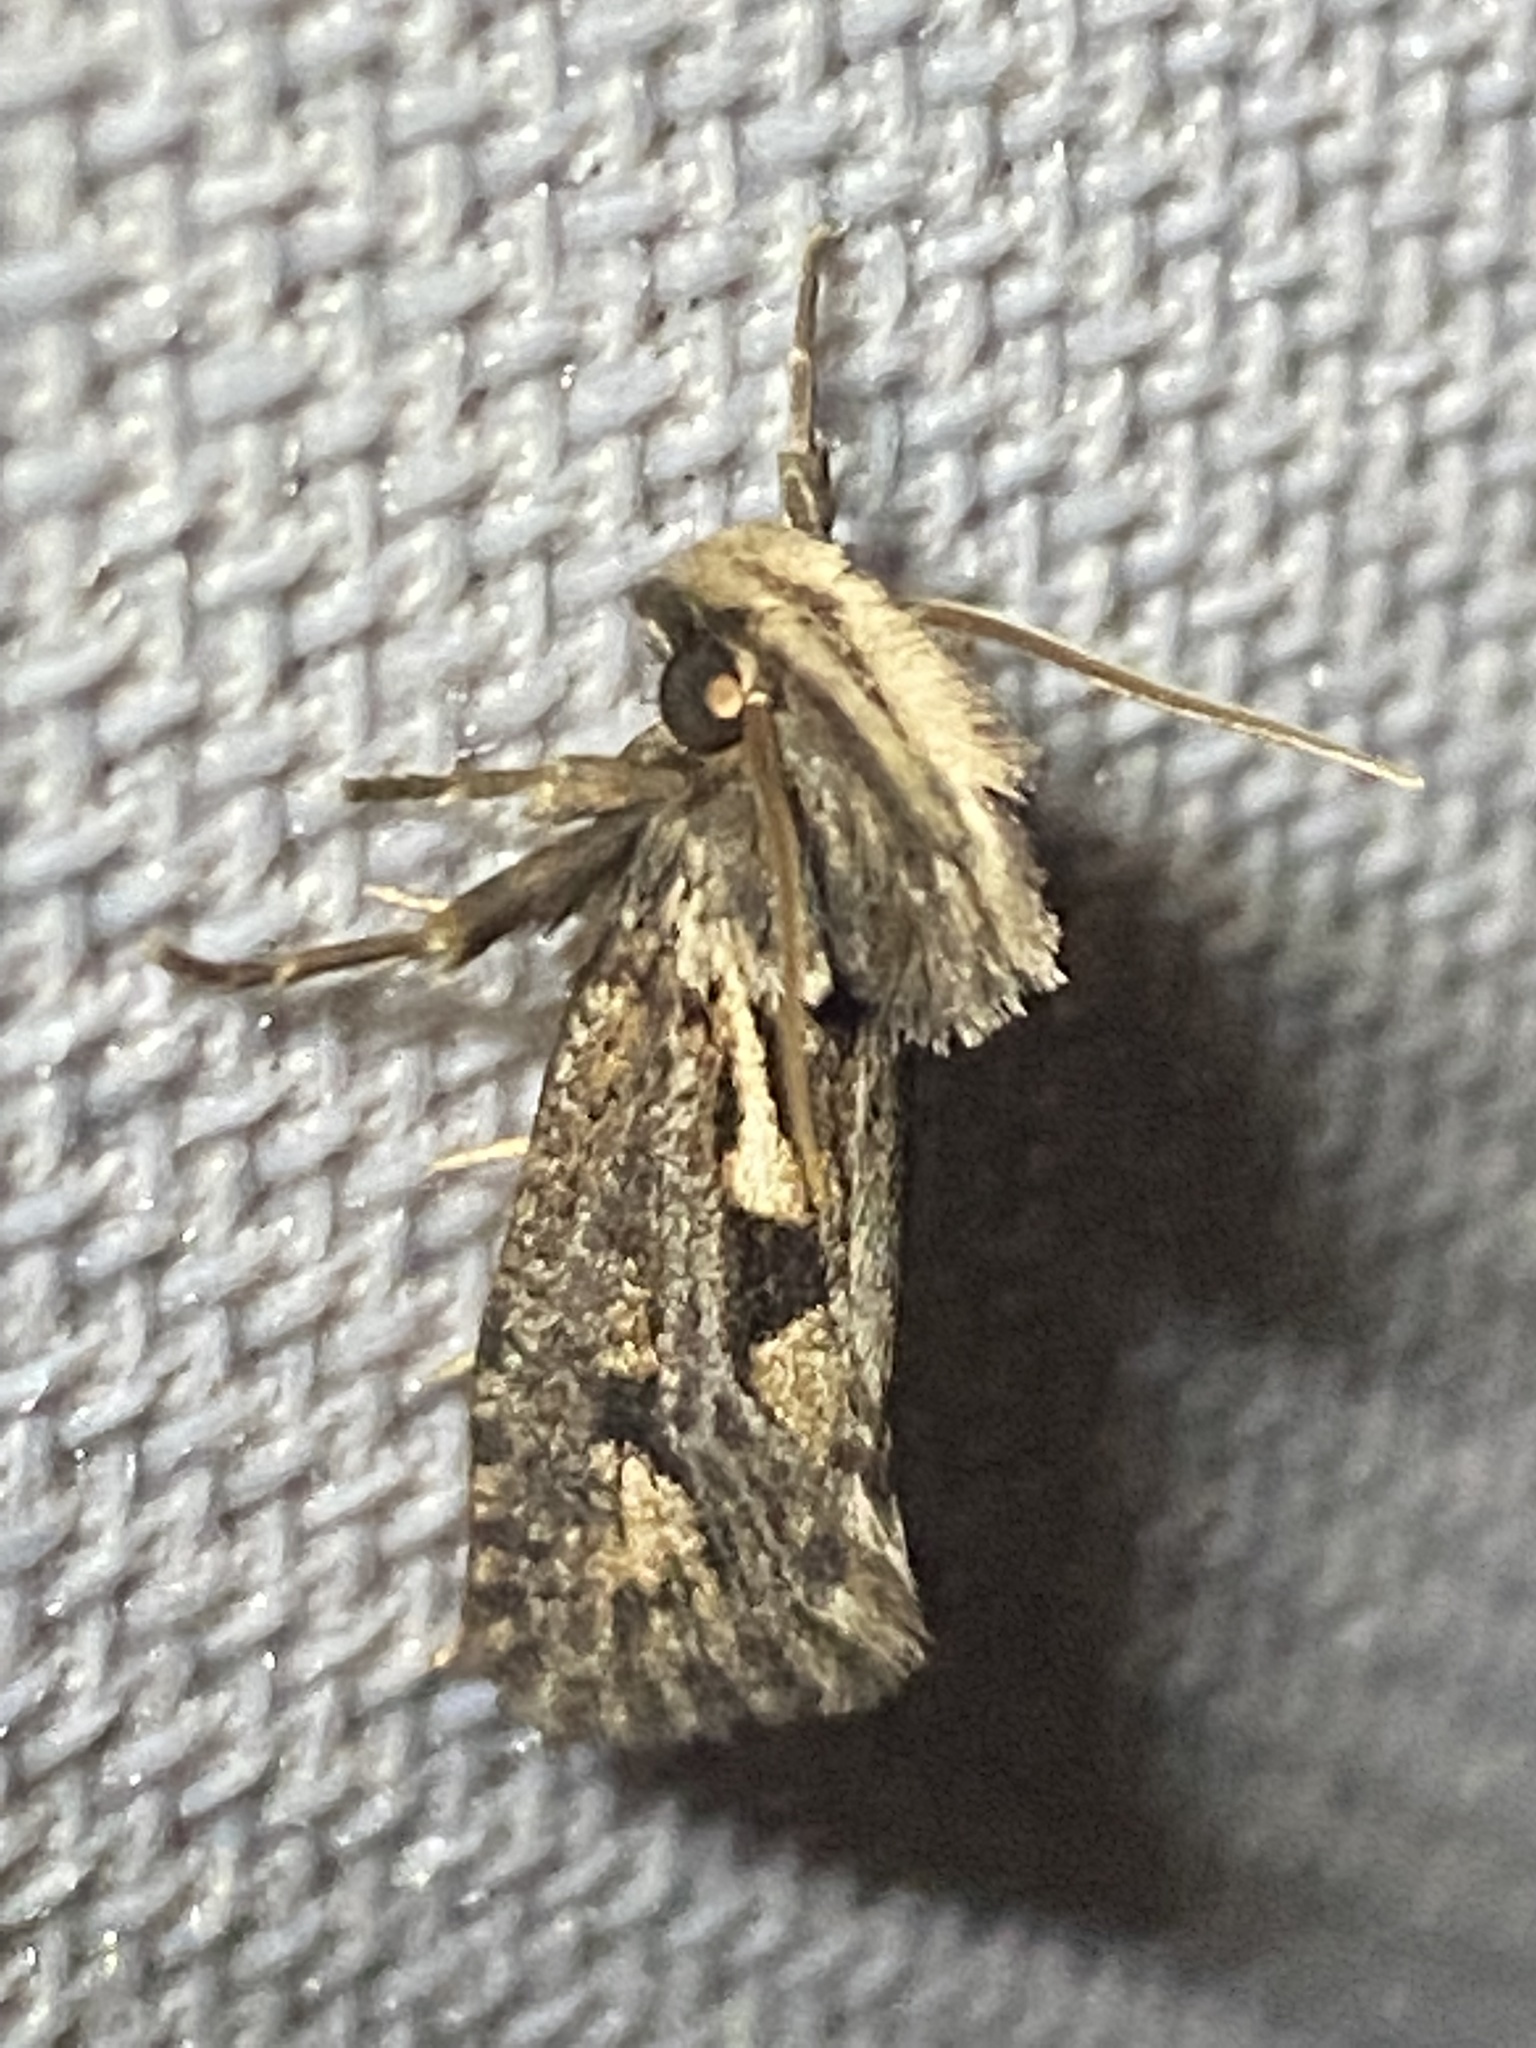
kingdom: Animalia
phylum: Arthropoda
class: Insecta
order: Lepidoptera
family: Tineidae
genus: Acrolophus
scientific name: Acrolophus popeanella
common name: Clemens' grass tubeworm moth
